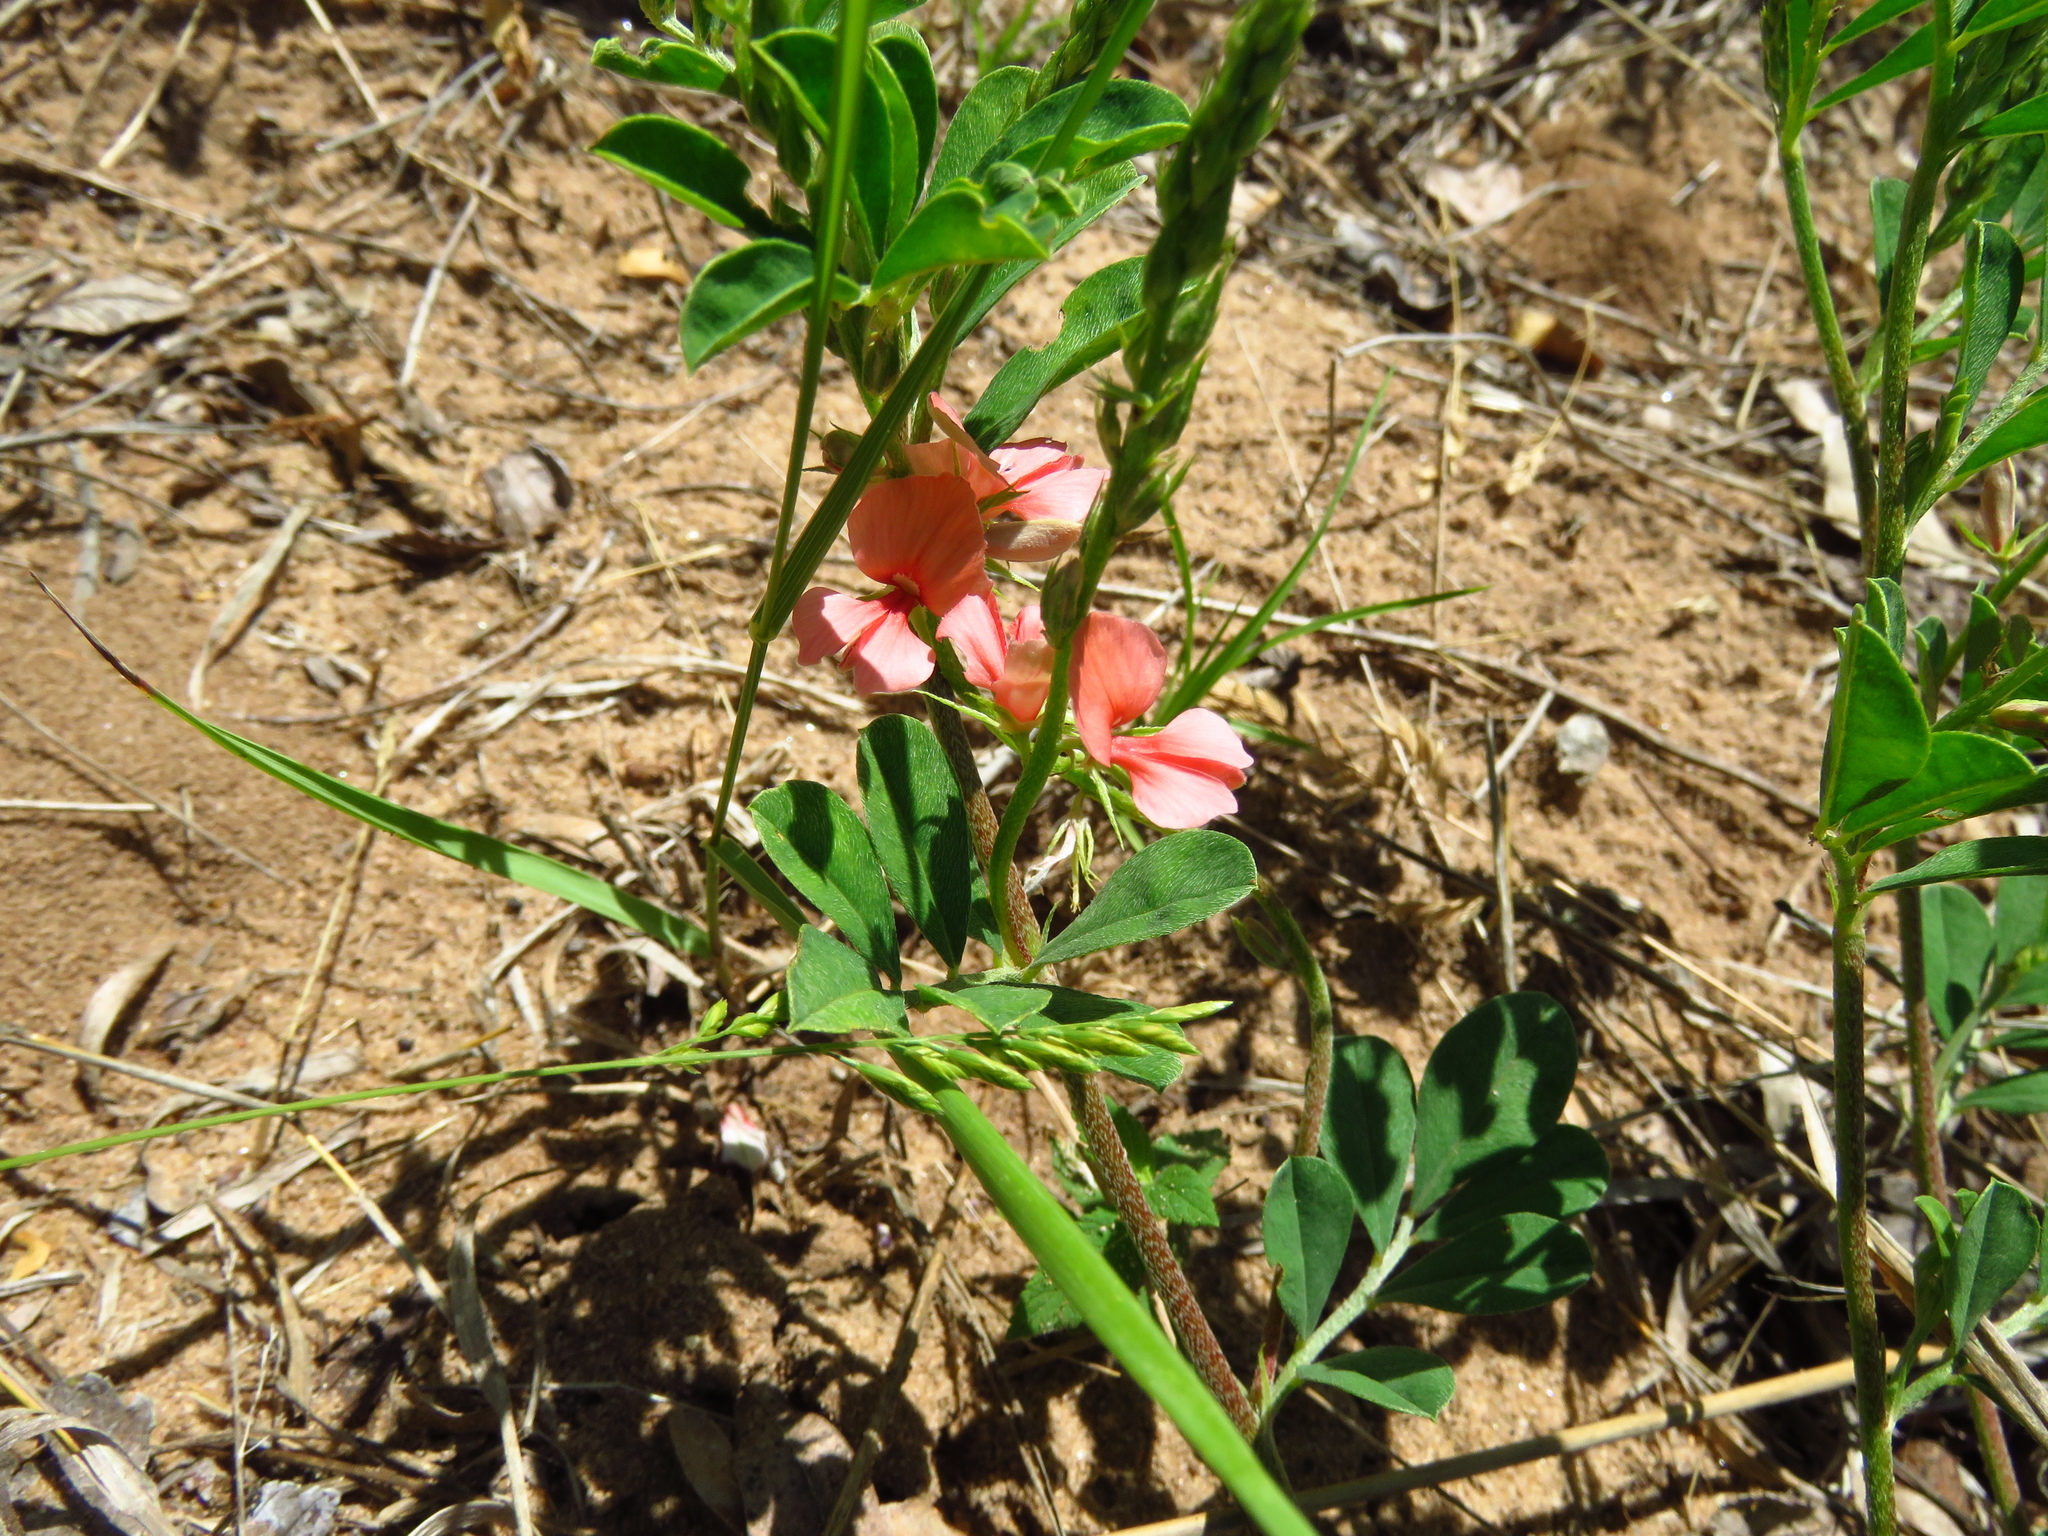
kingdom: Plantae
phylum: Tracheophyta
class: Magnoliopsida
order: Fabales
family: Fabaceae
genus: Indigofera
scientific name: Indigofera miniata
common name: Coast indigo
